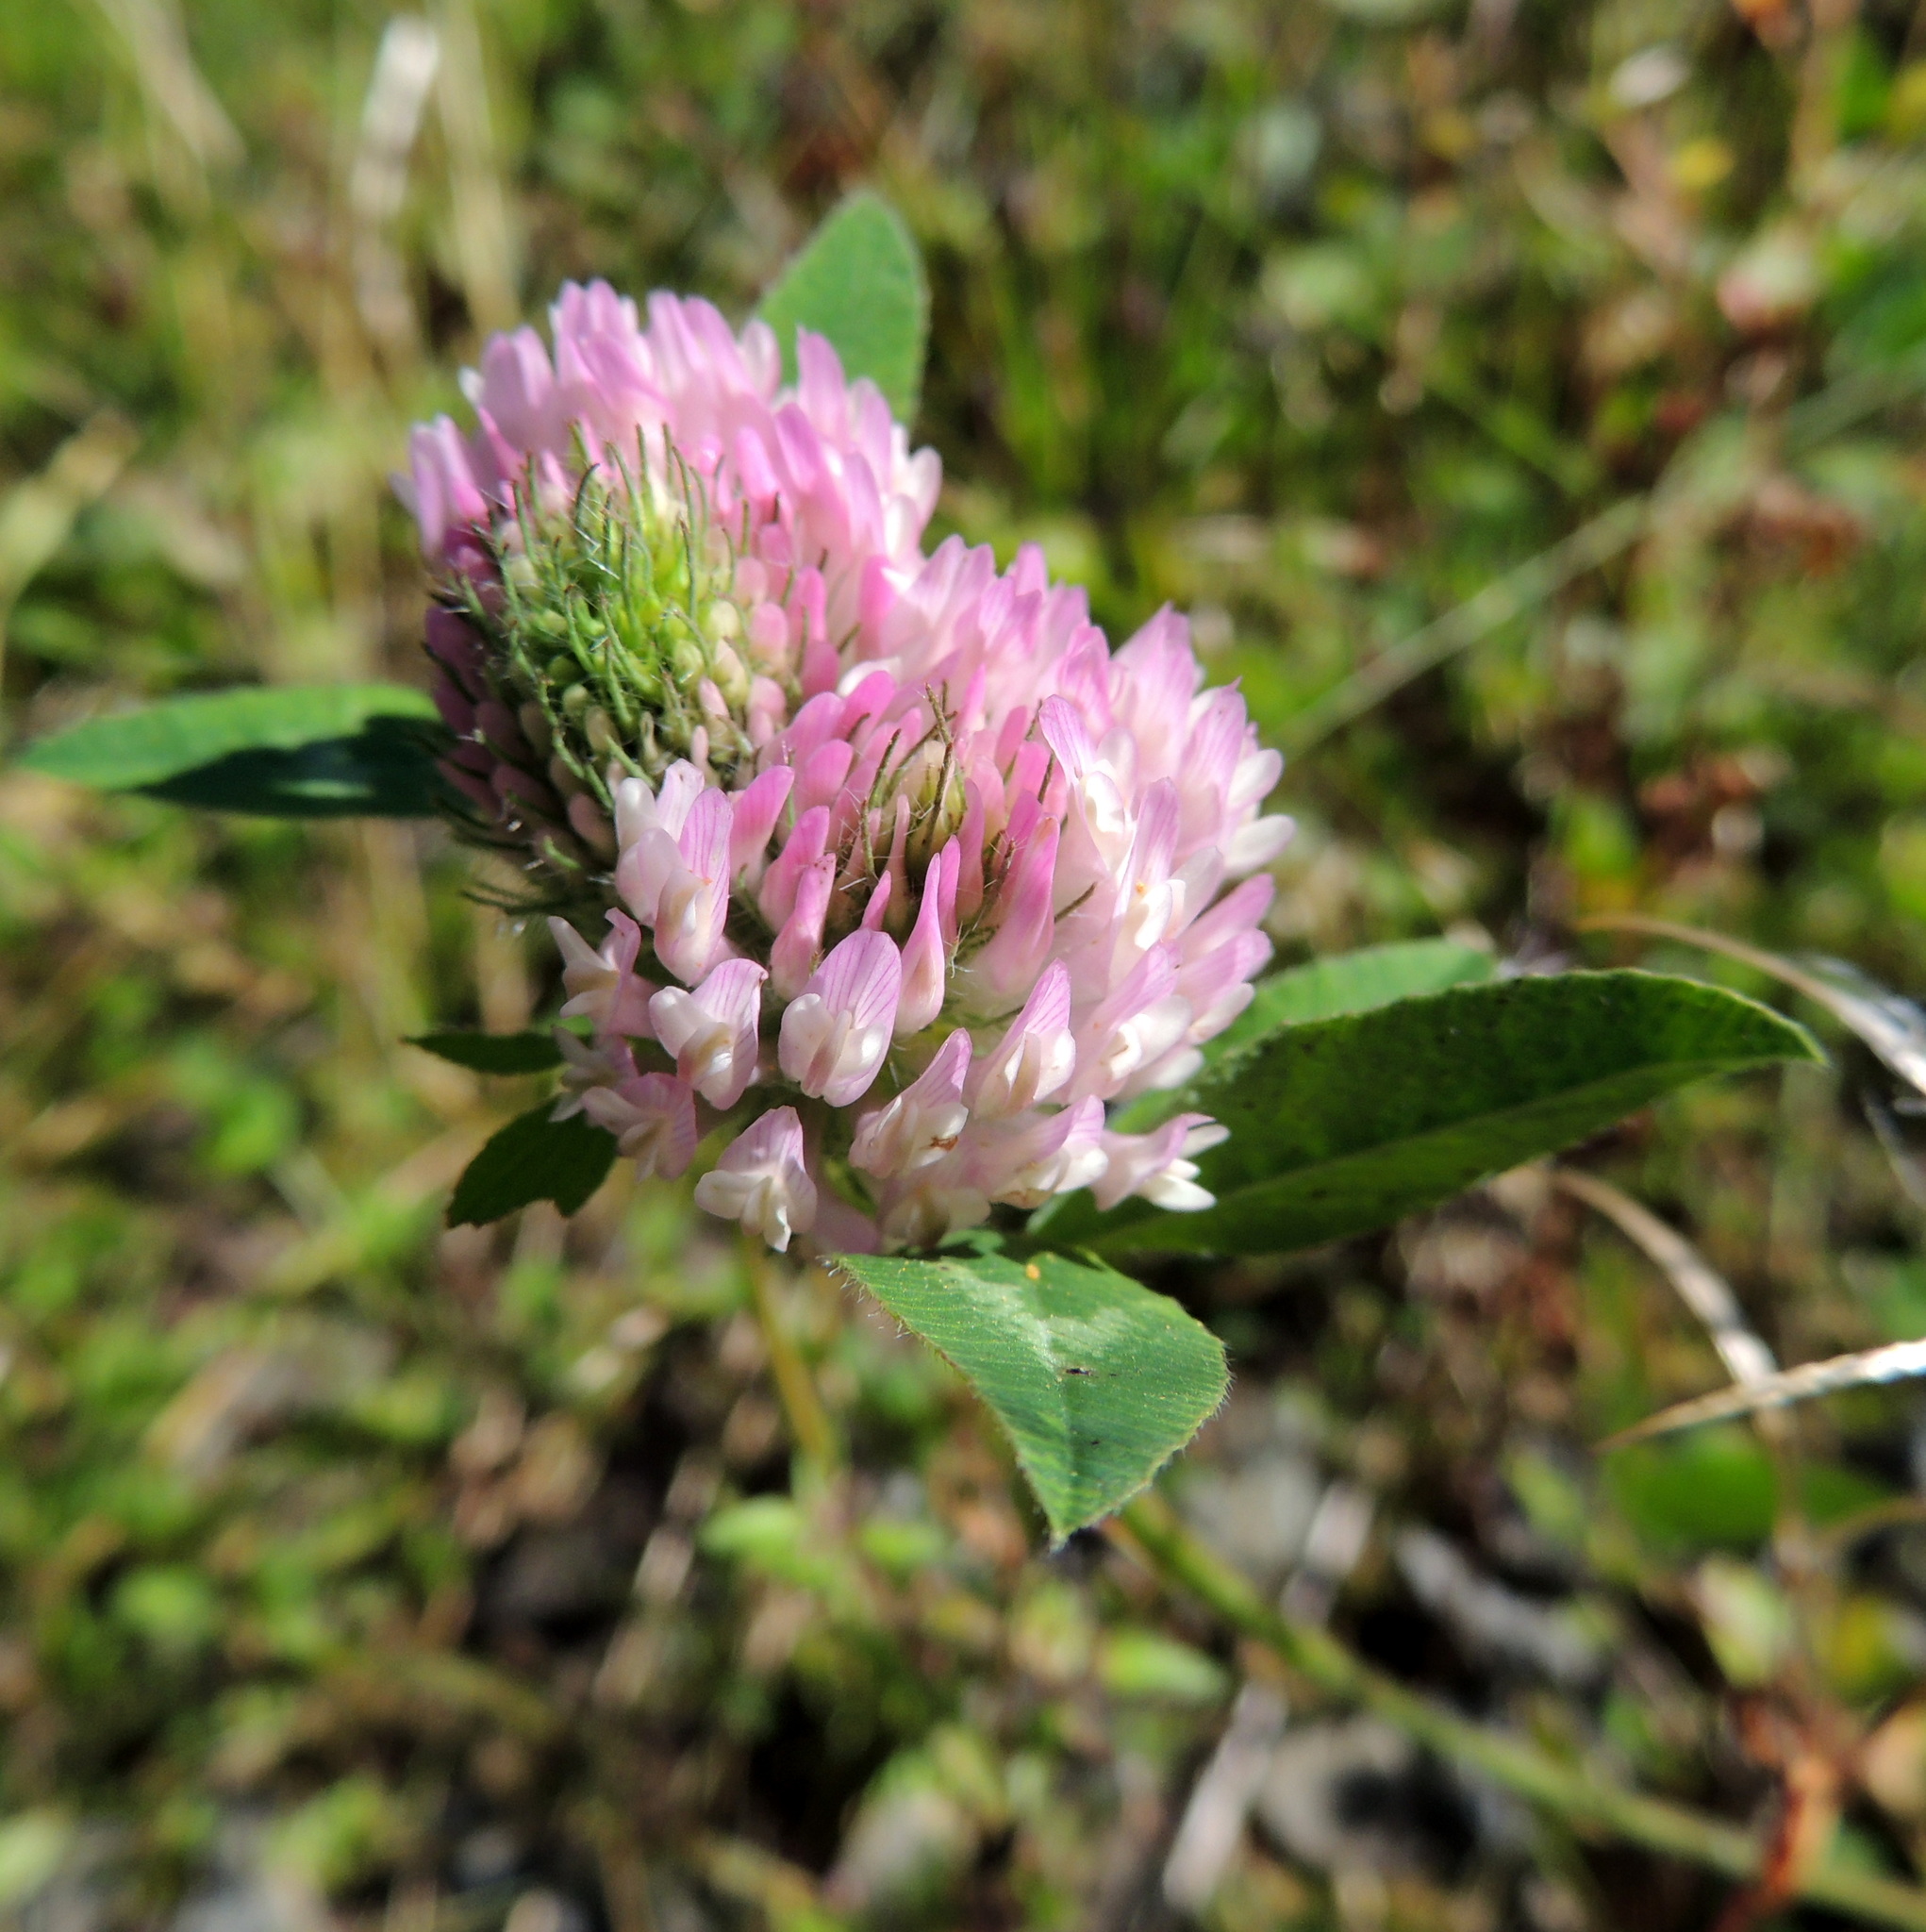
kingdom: Plantae
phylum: Tracheophyta
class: Magnoliopsida
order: Fabales
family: Fabaceae
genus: Trifolium
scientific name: Trifolium pratense
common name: Red clover
